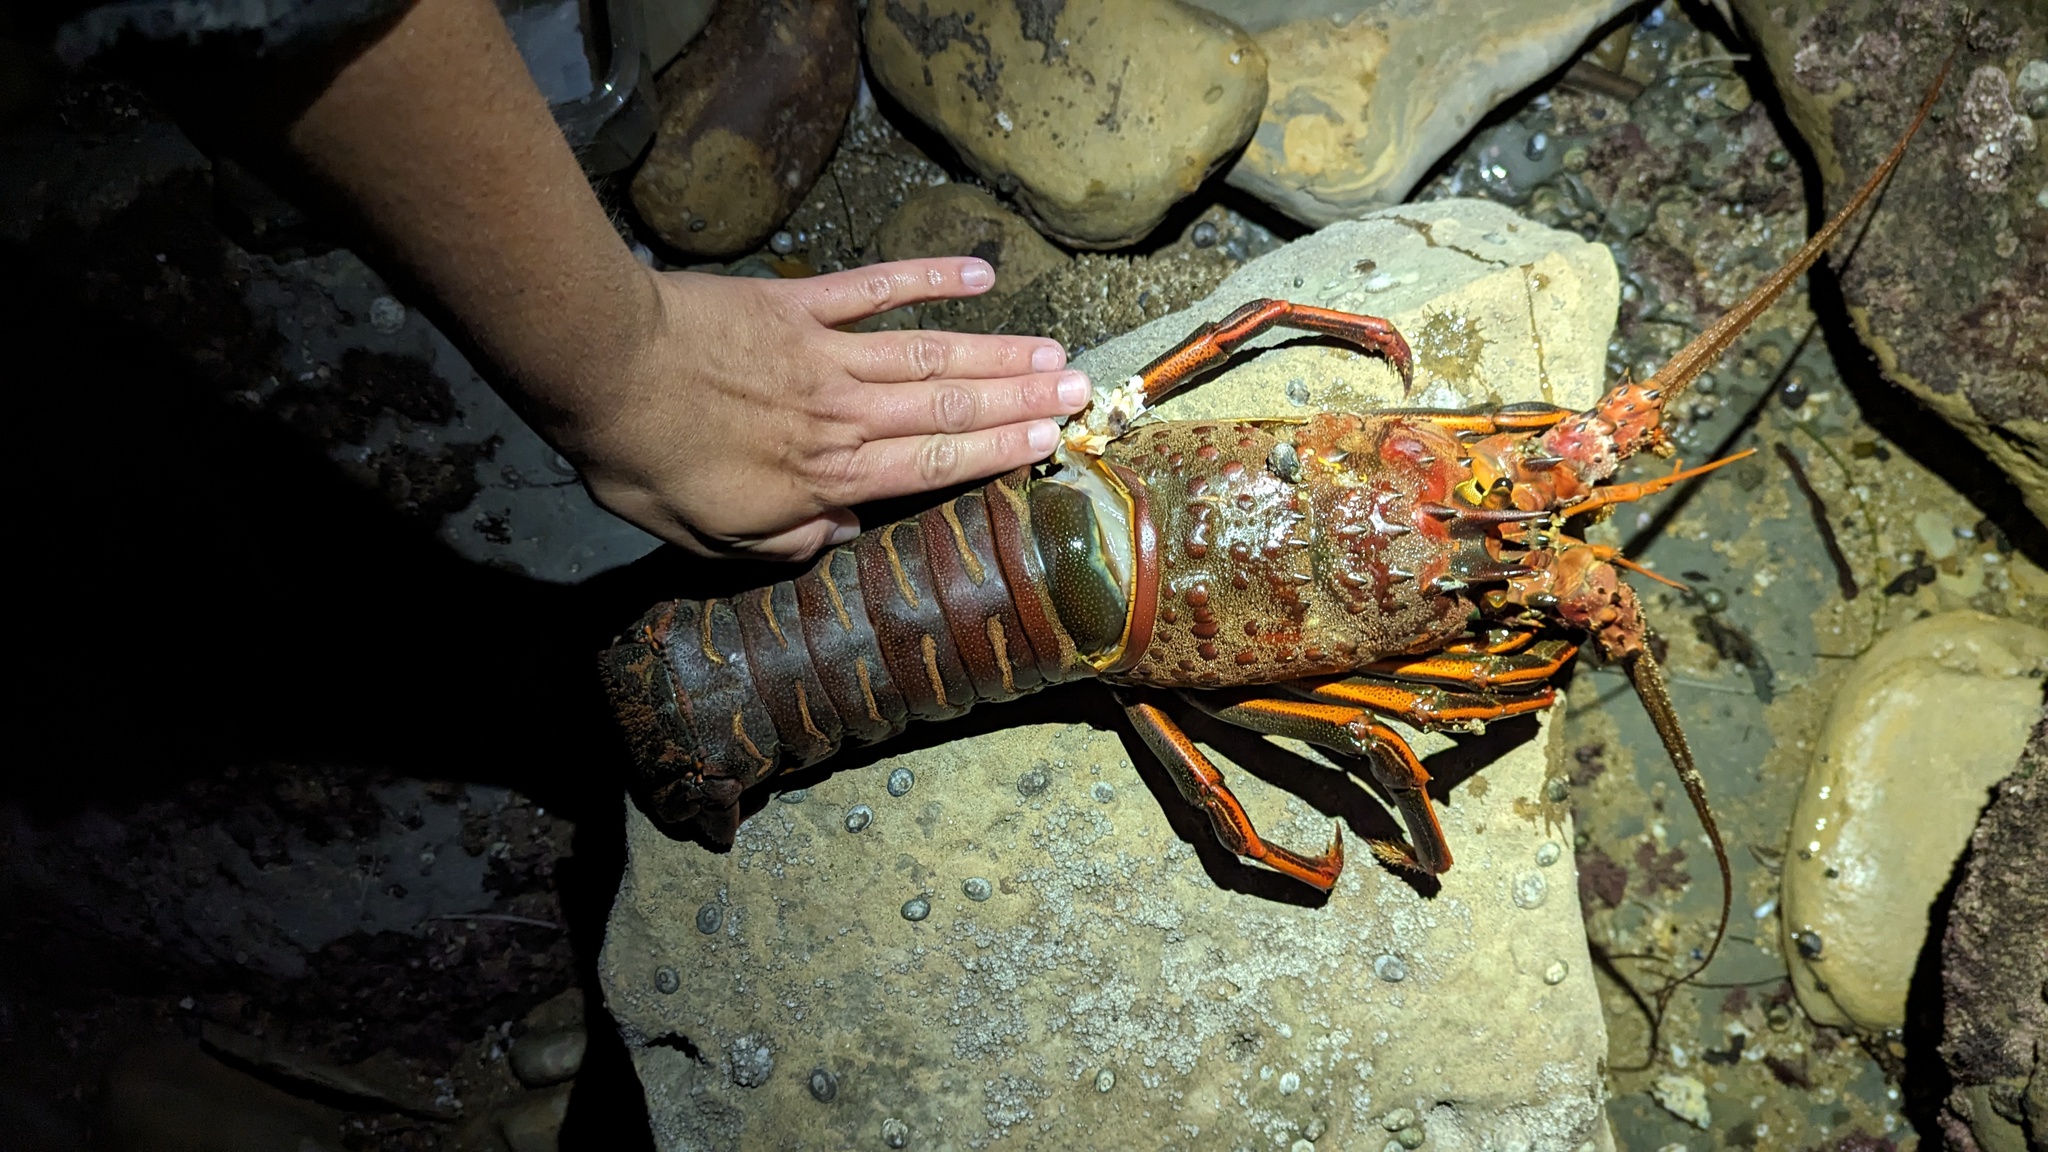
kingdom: Animalia
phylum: Arthropoda
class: Malacostraca
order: Decapoda
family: Palinuridae
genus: Panulirus
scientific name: Panulirus interruptus
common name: California spiny lobster
